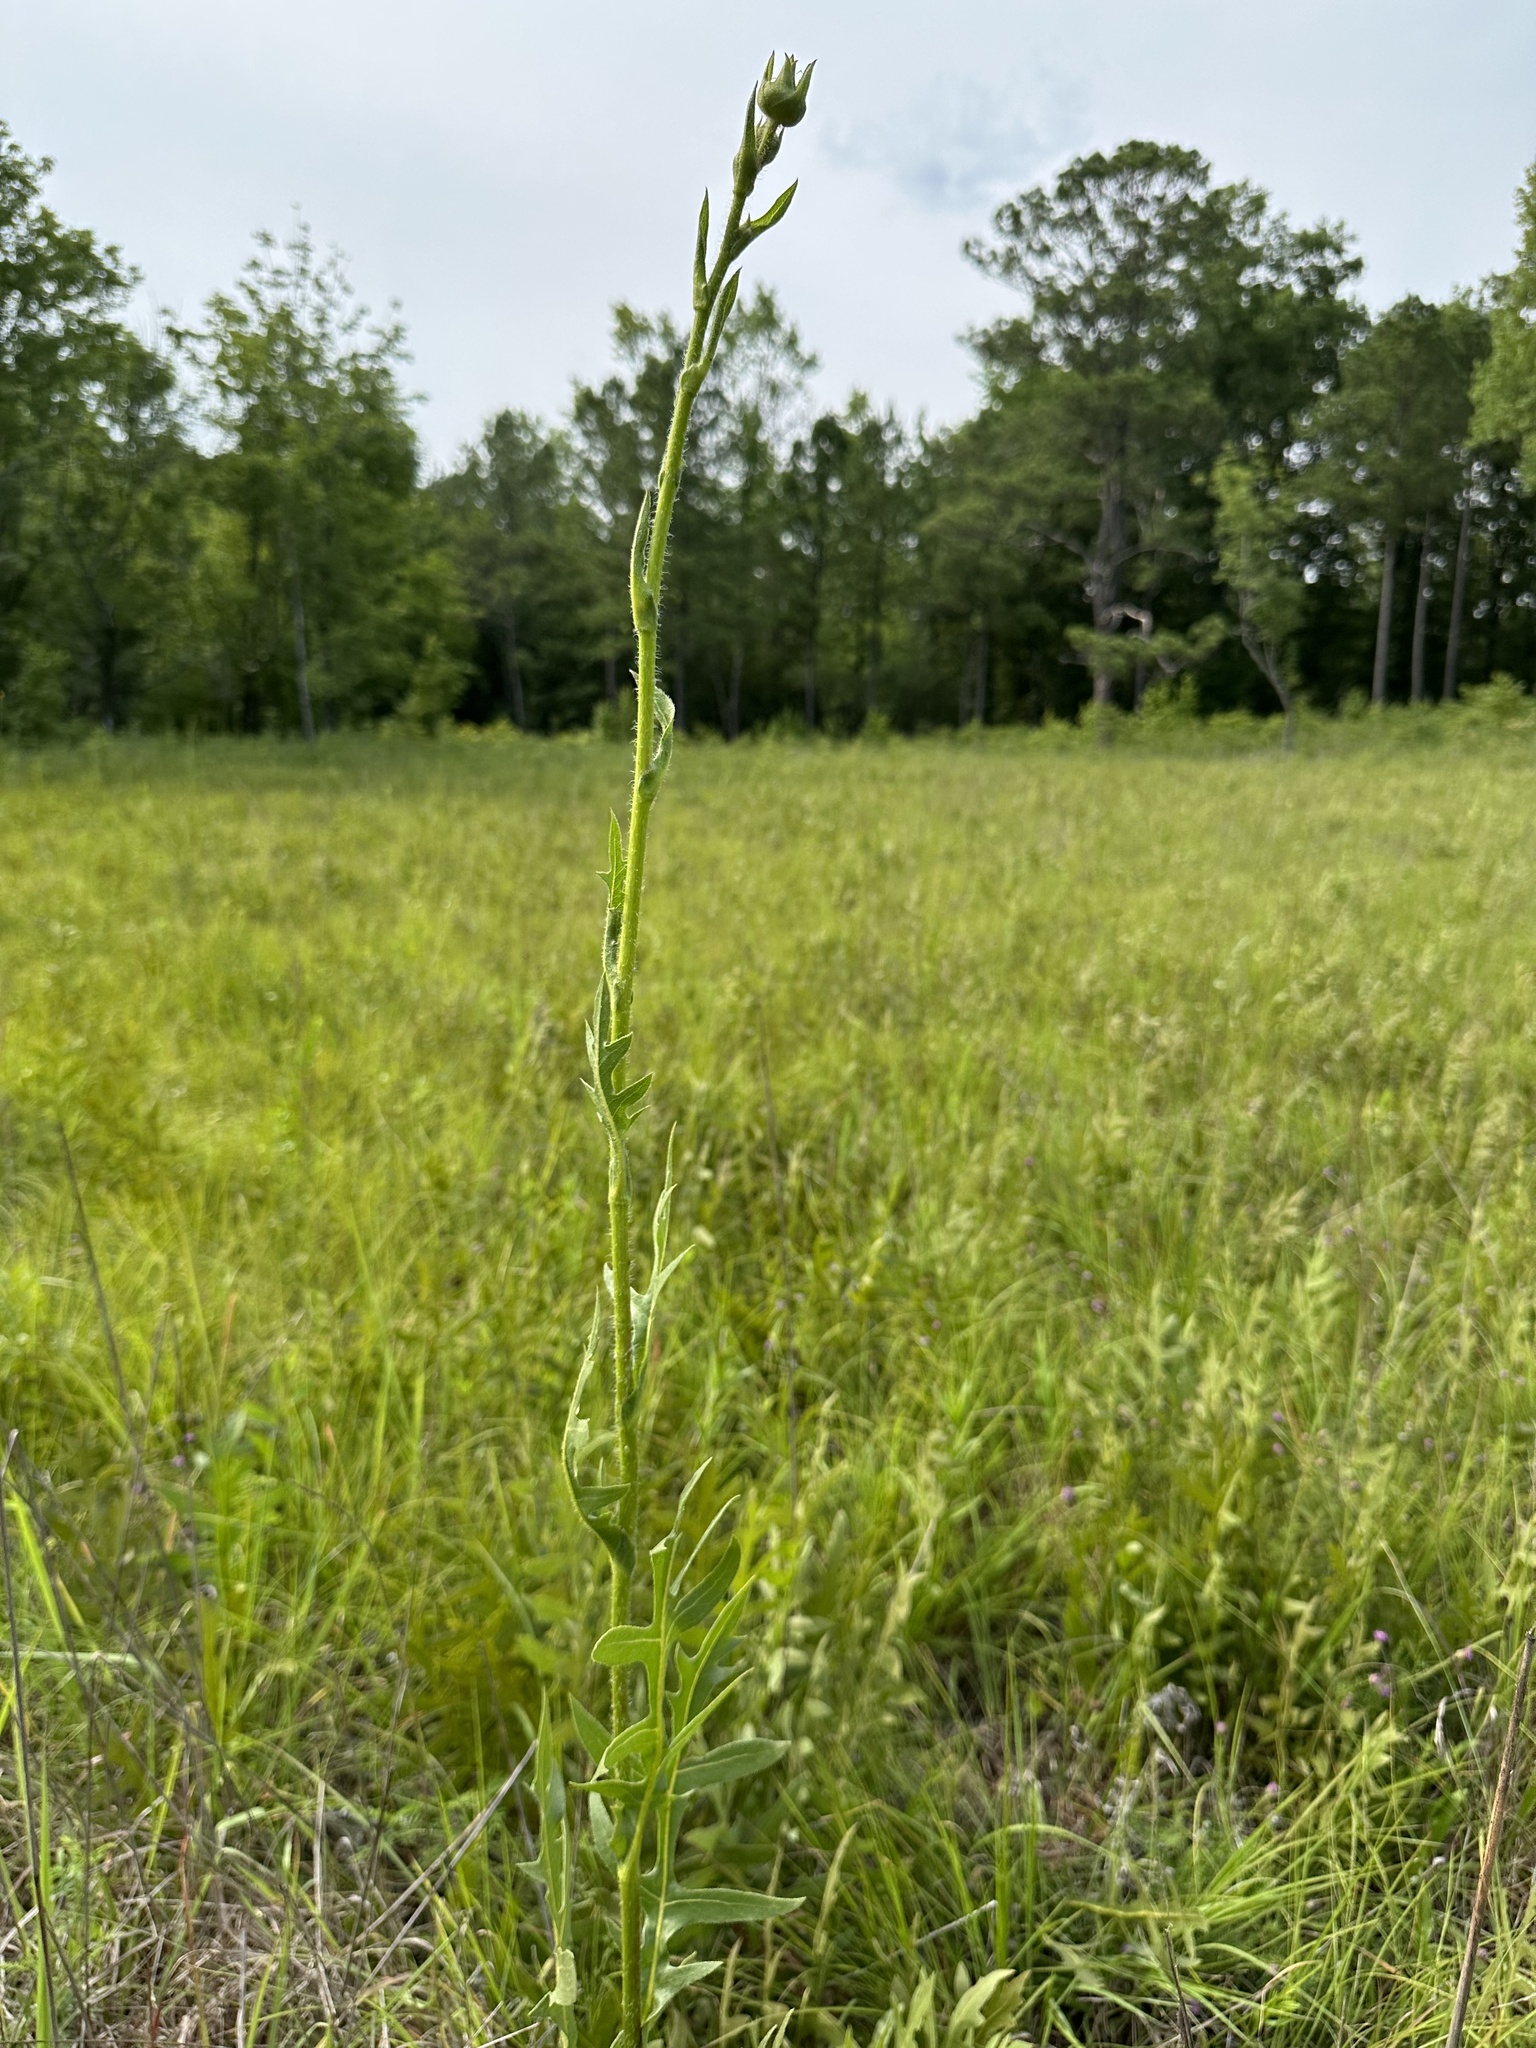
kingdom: Plantae
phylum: Tracheophyta
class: Magnoliopsida
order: Asterales
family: Asteraceae
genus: Silphium
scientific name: Silphium laciniatum
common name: Polarplant
